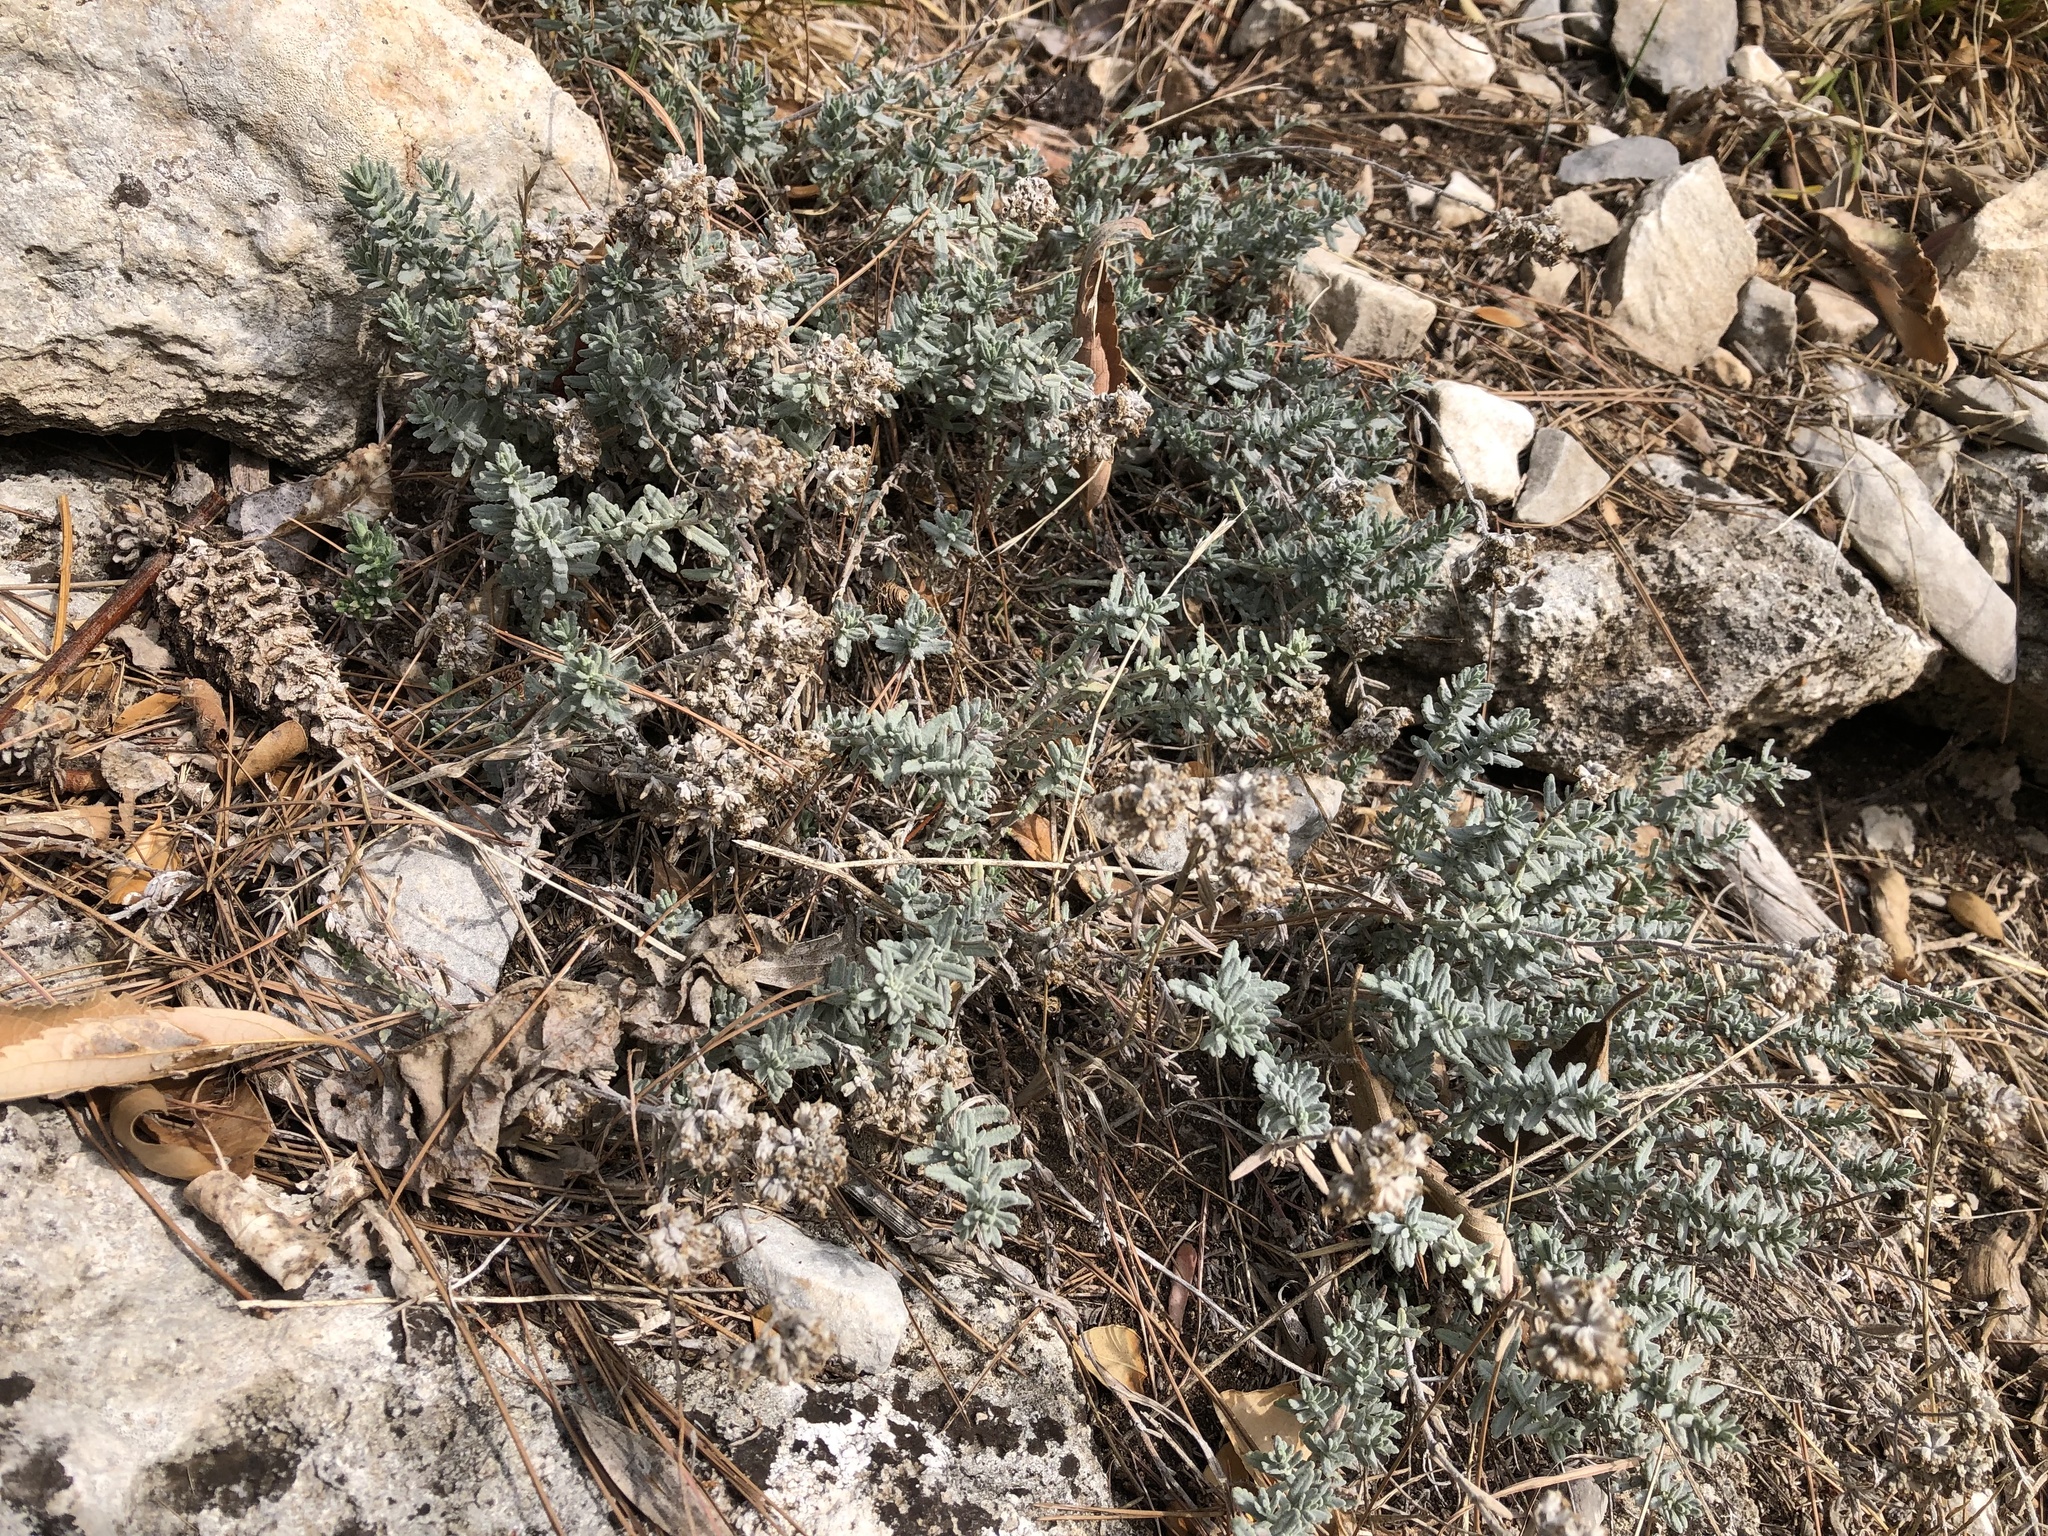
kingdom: Plantae
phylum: Tracheophyta
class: Magnoliopsida
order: Lamiales
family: Lamiaceae
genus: Teucrium
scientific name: Teucrium capitatum
